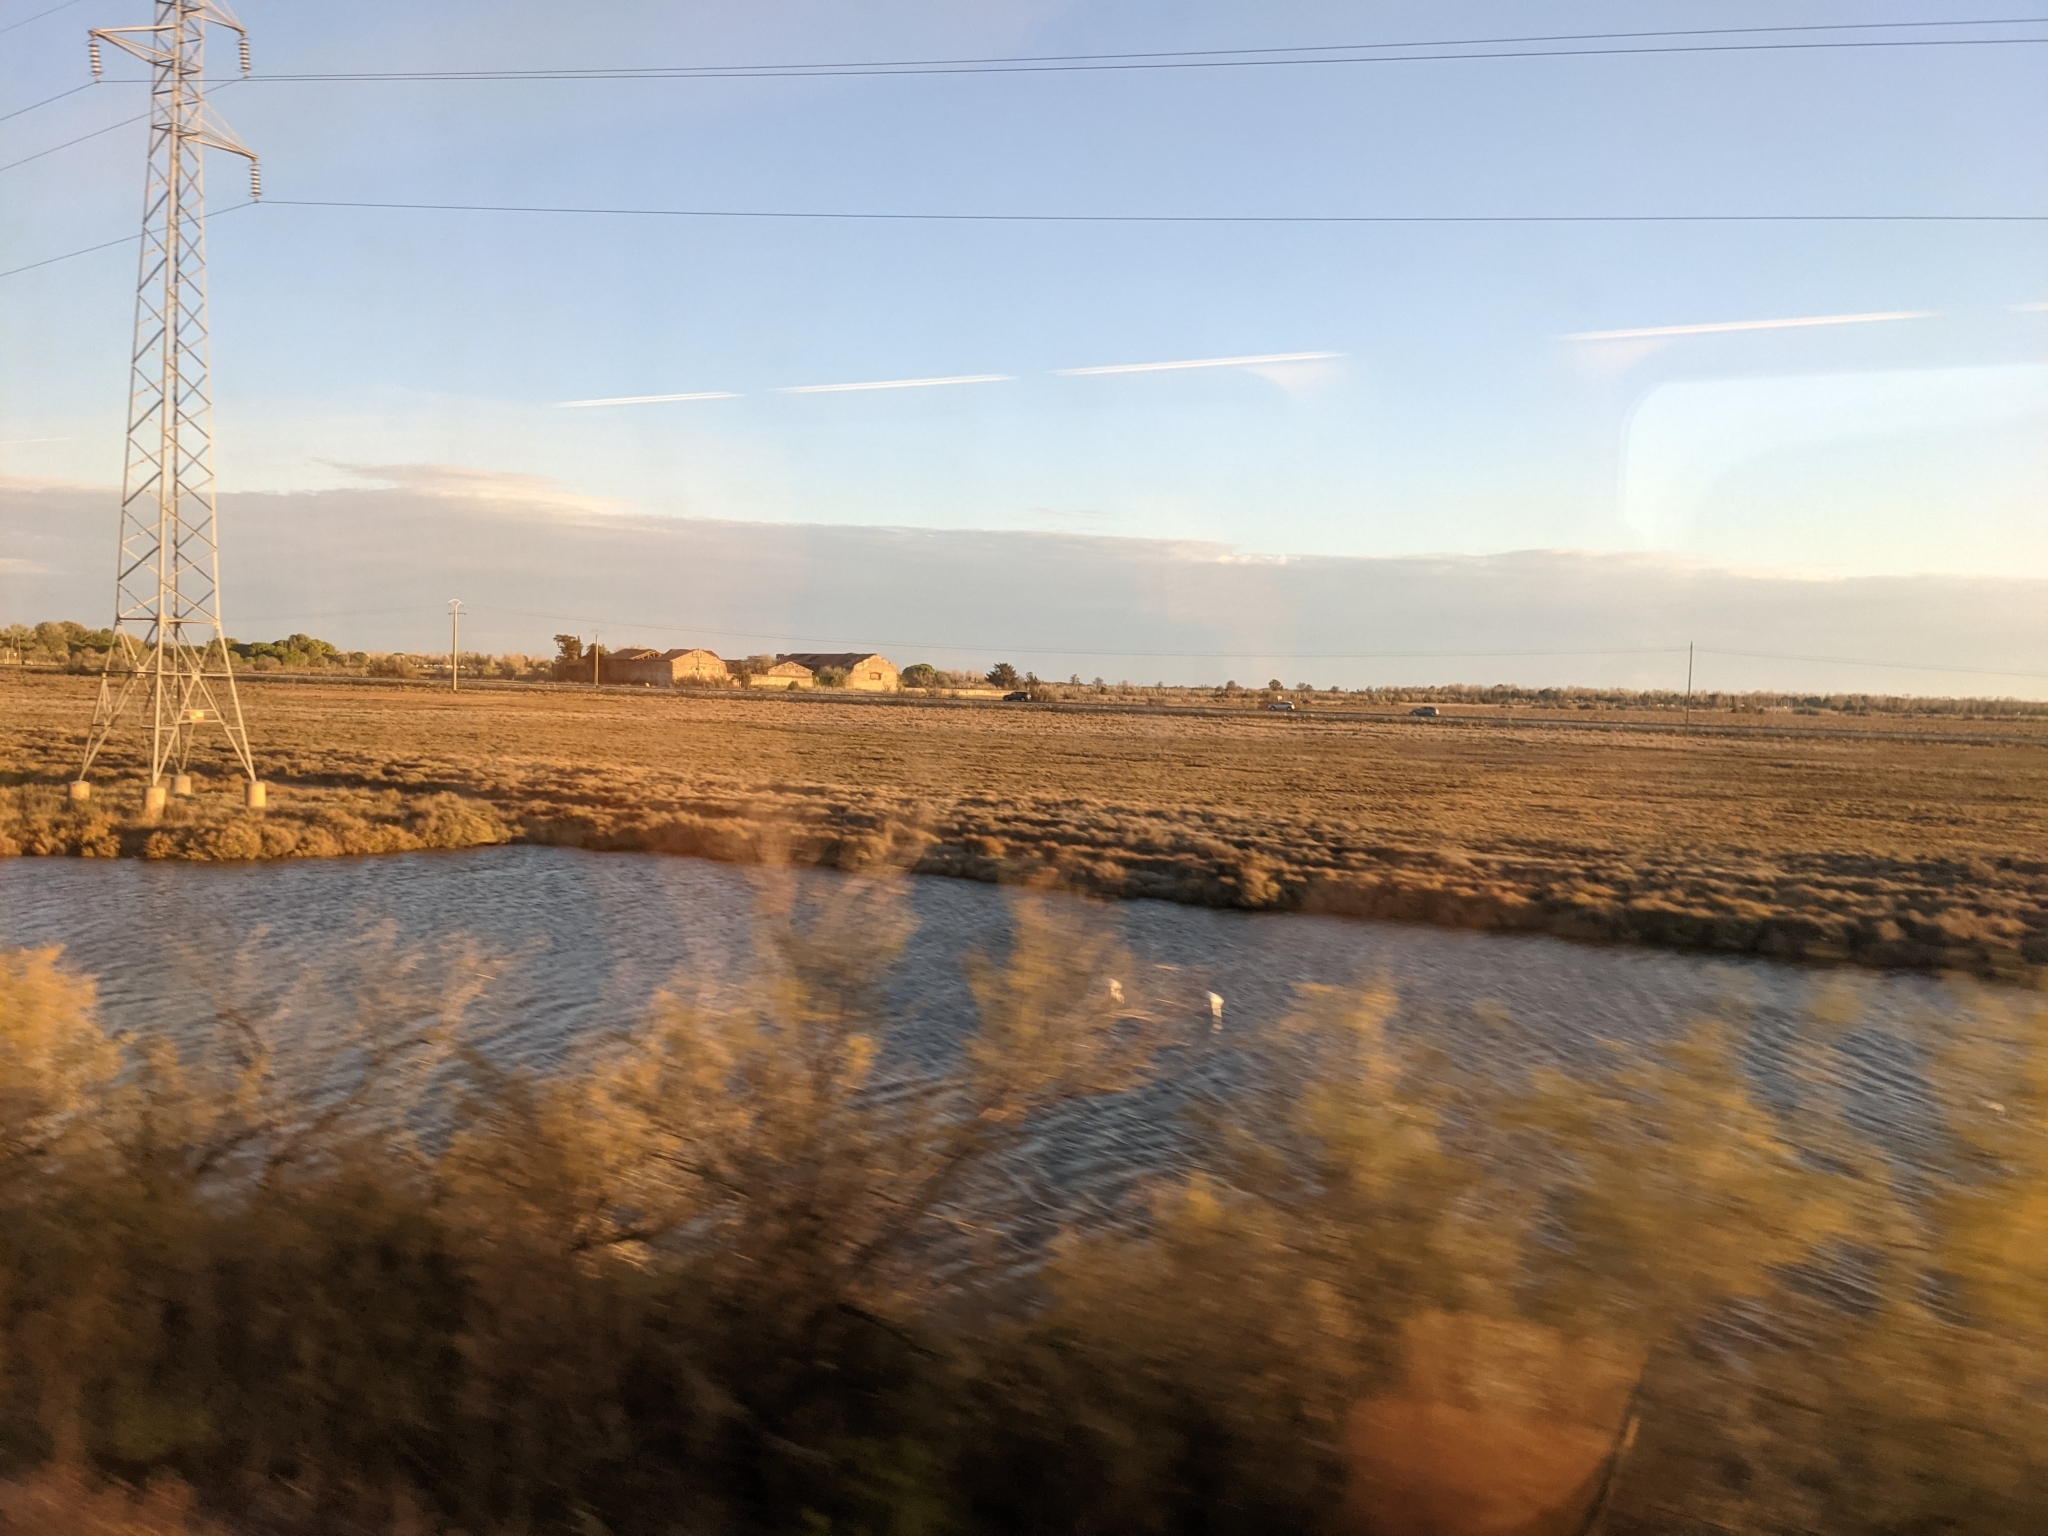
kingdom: Animalia
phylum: Chordata
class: Aves
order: Phoenicopteriformes
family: Phoenicopteridae
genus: Phoenicopterus
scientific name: Phoenicopterus roseus
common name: Greater flamingo
